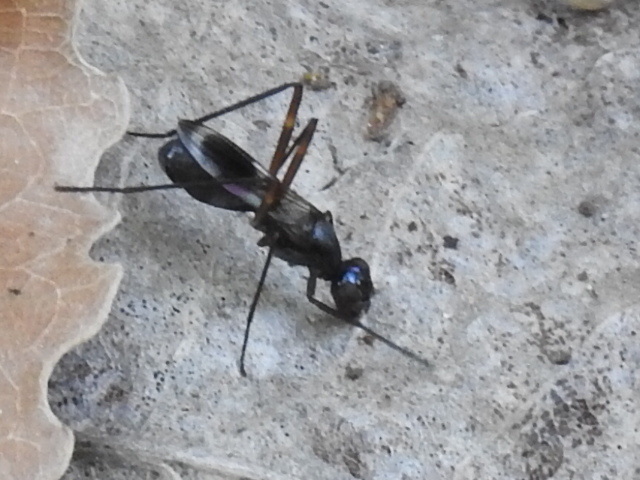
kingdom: Animalia
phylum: Arthropoda
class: Insecta
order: Diptera
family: Micropezidae
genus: Taeniaptera
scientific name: Taeniaptera trivittata
